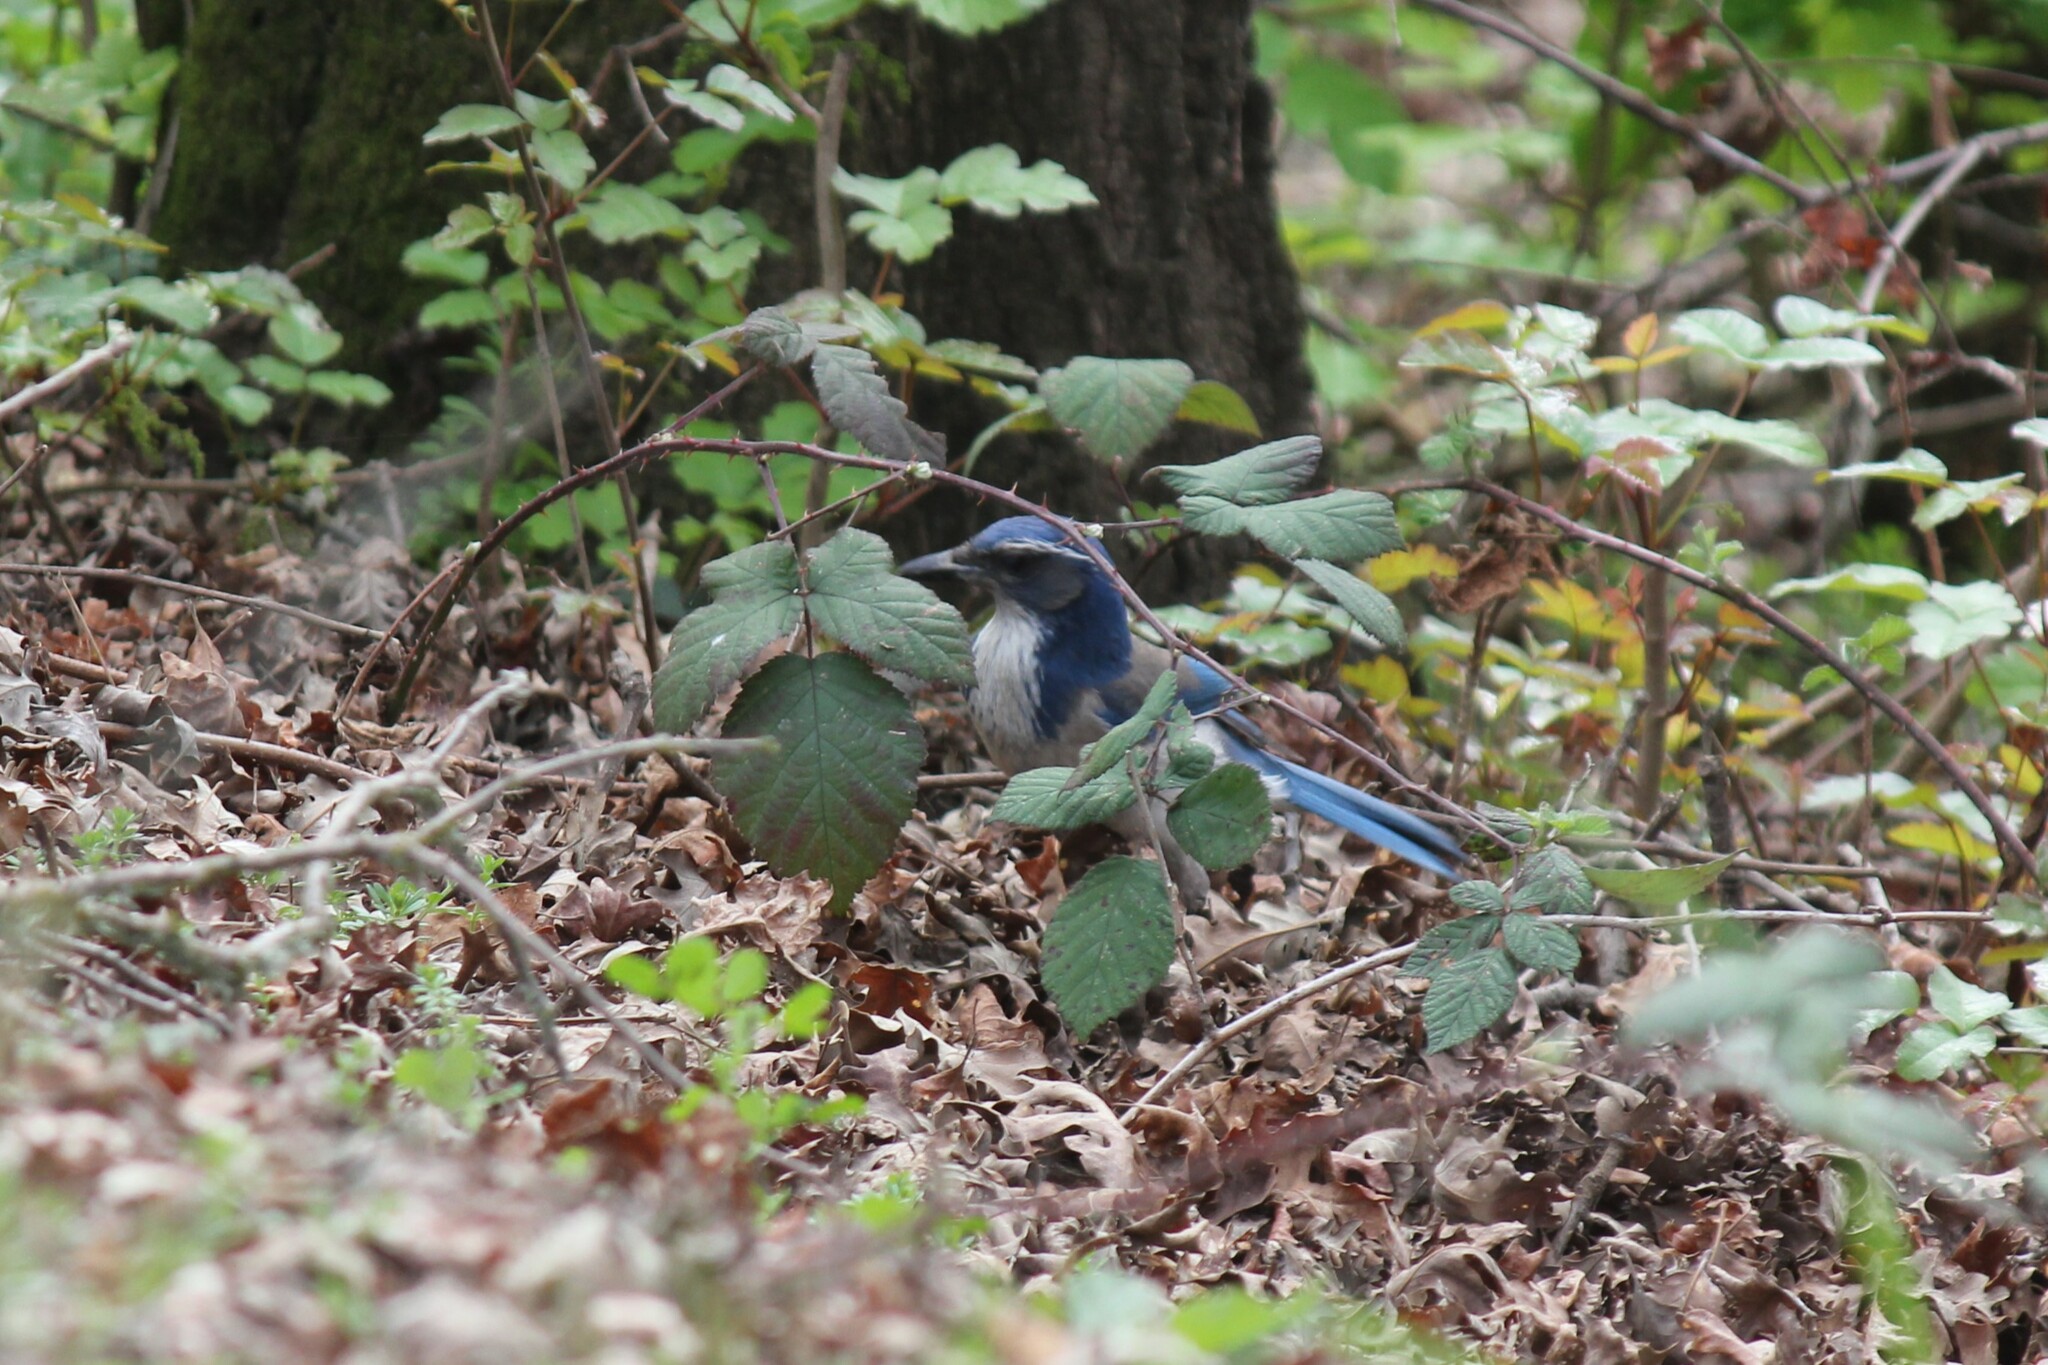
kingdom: Animalia
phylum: Chordata
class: Aves
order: Passeriformes
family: Corvidae
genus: Aphelocoma
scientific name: Aphelocoma californica
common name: California scrub-jay
